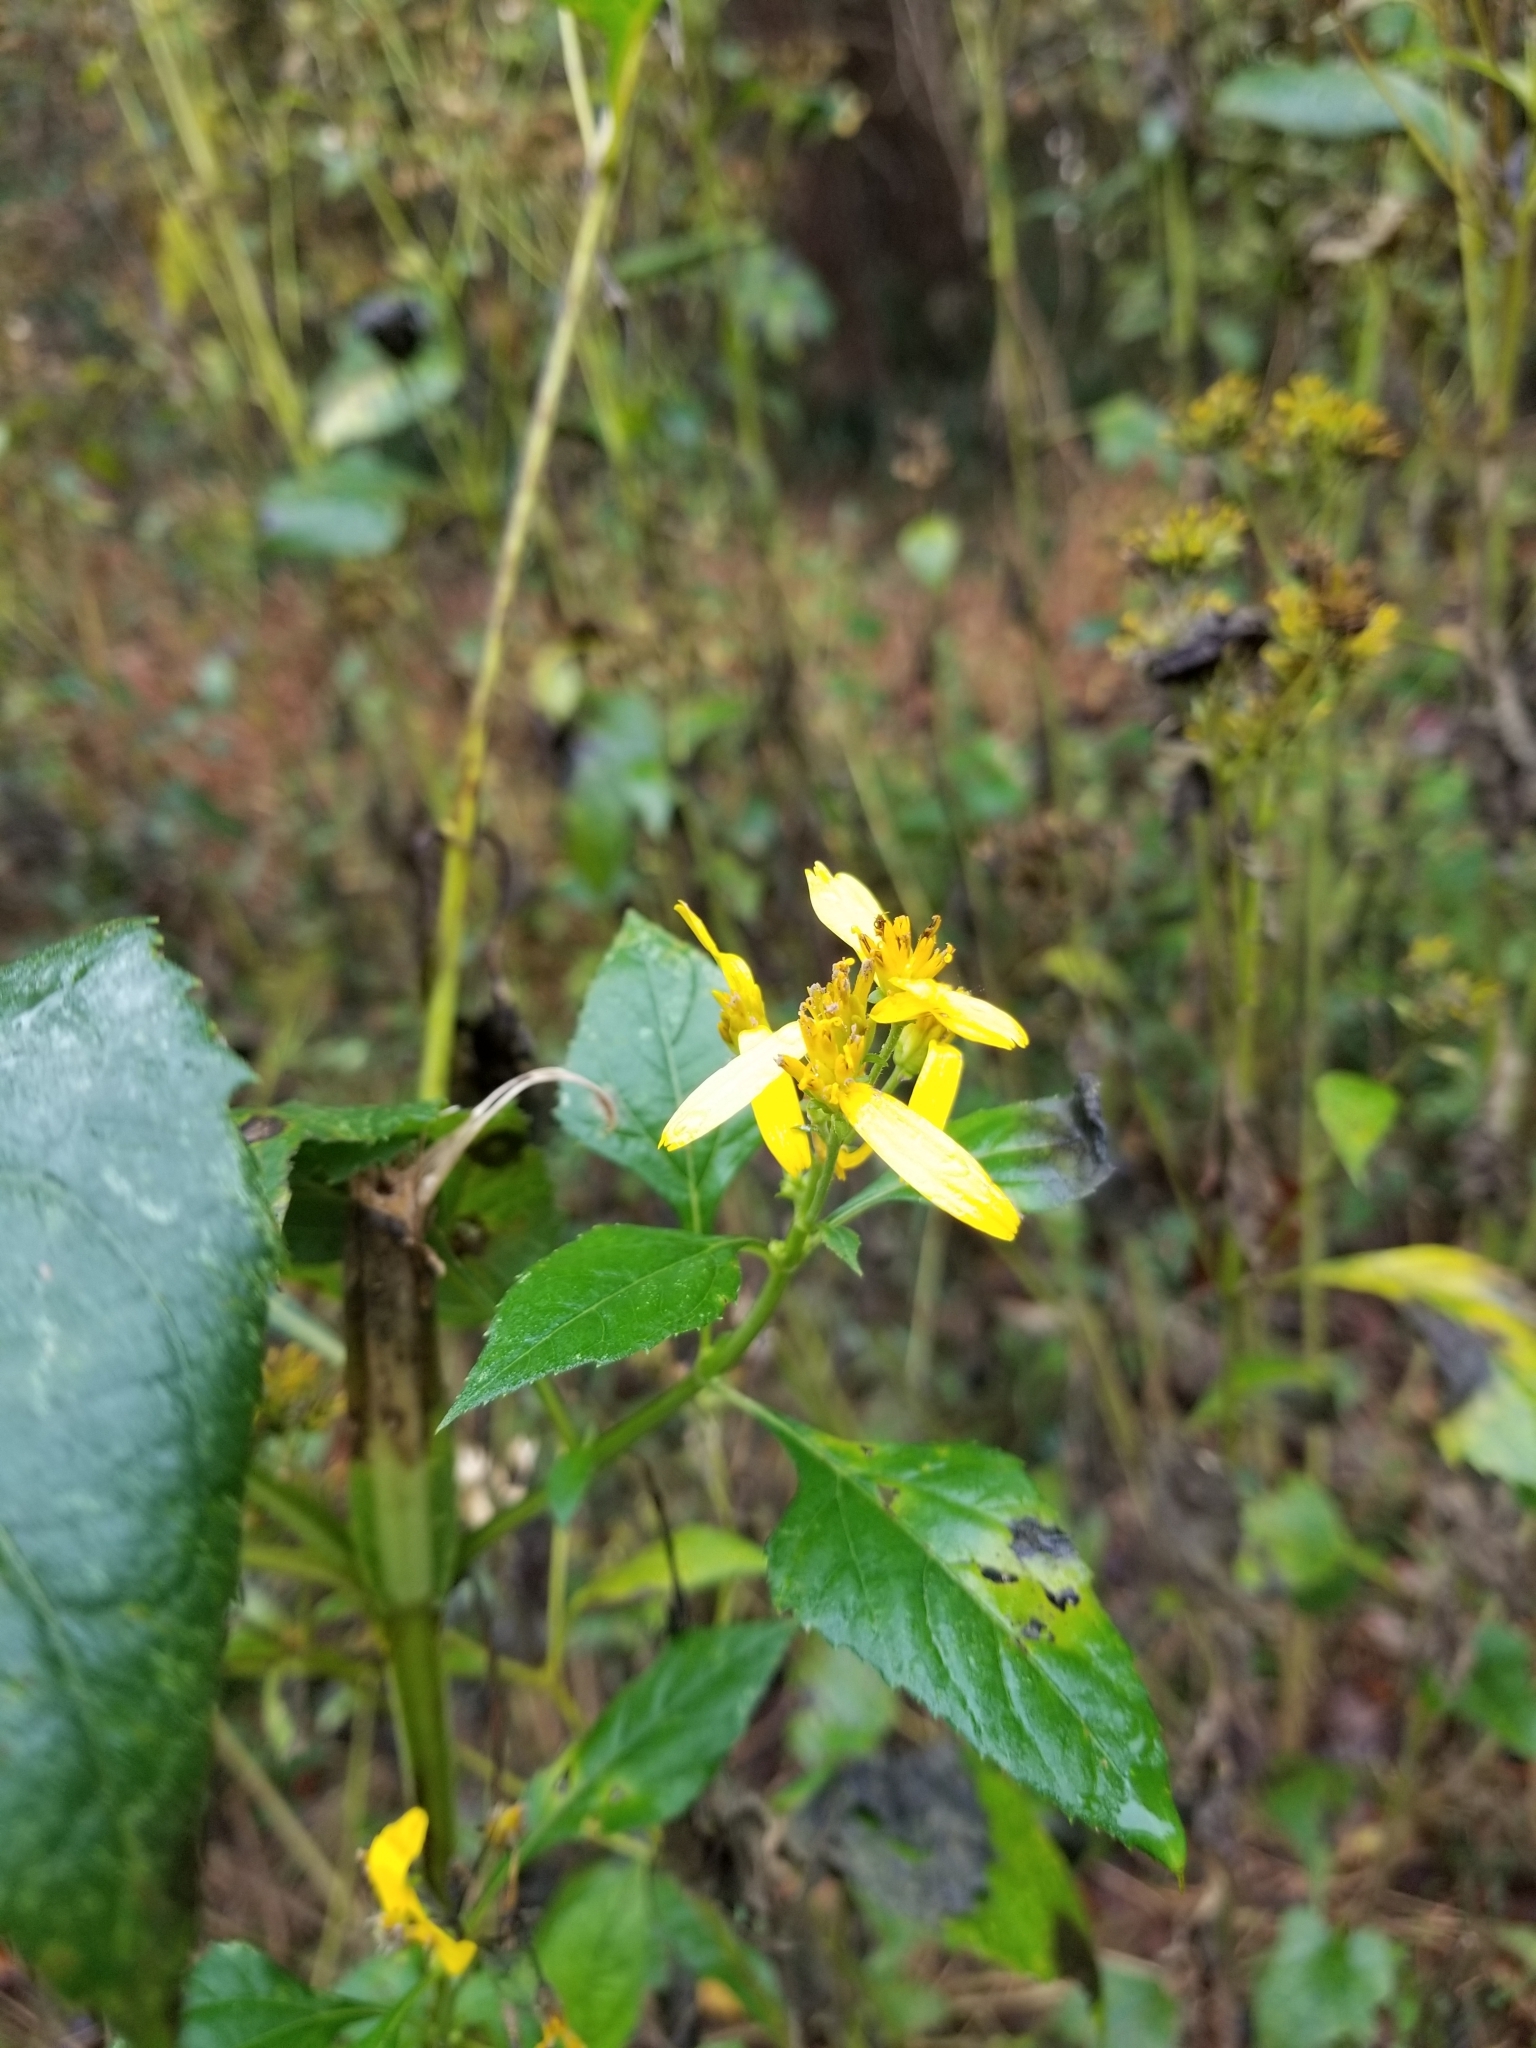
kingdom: Plantae
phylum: Tracheophyta
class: Magnoliopsida
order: Asterales
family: Asteraceae
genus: Verbesina
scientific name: Verbesina occidentalis
